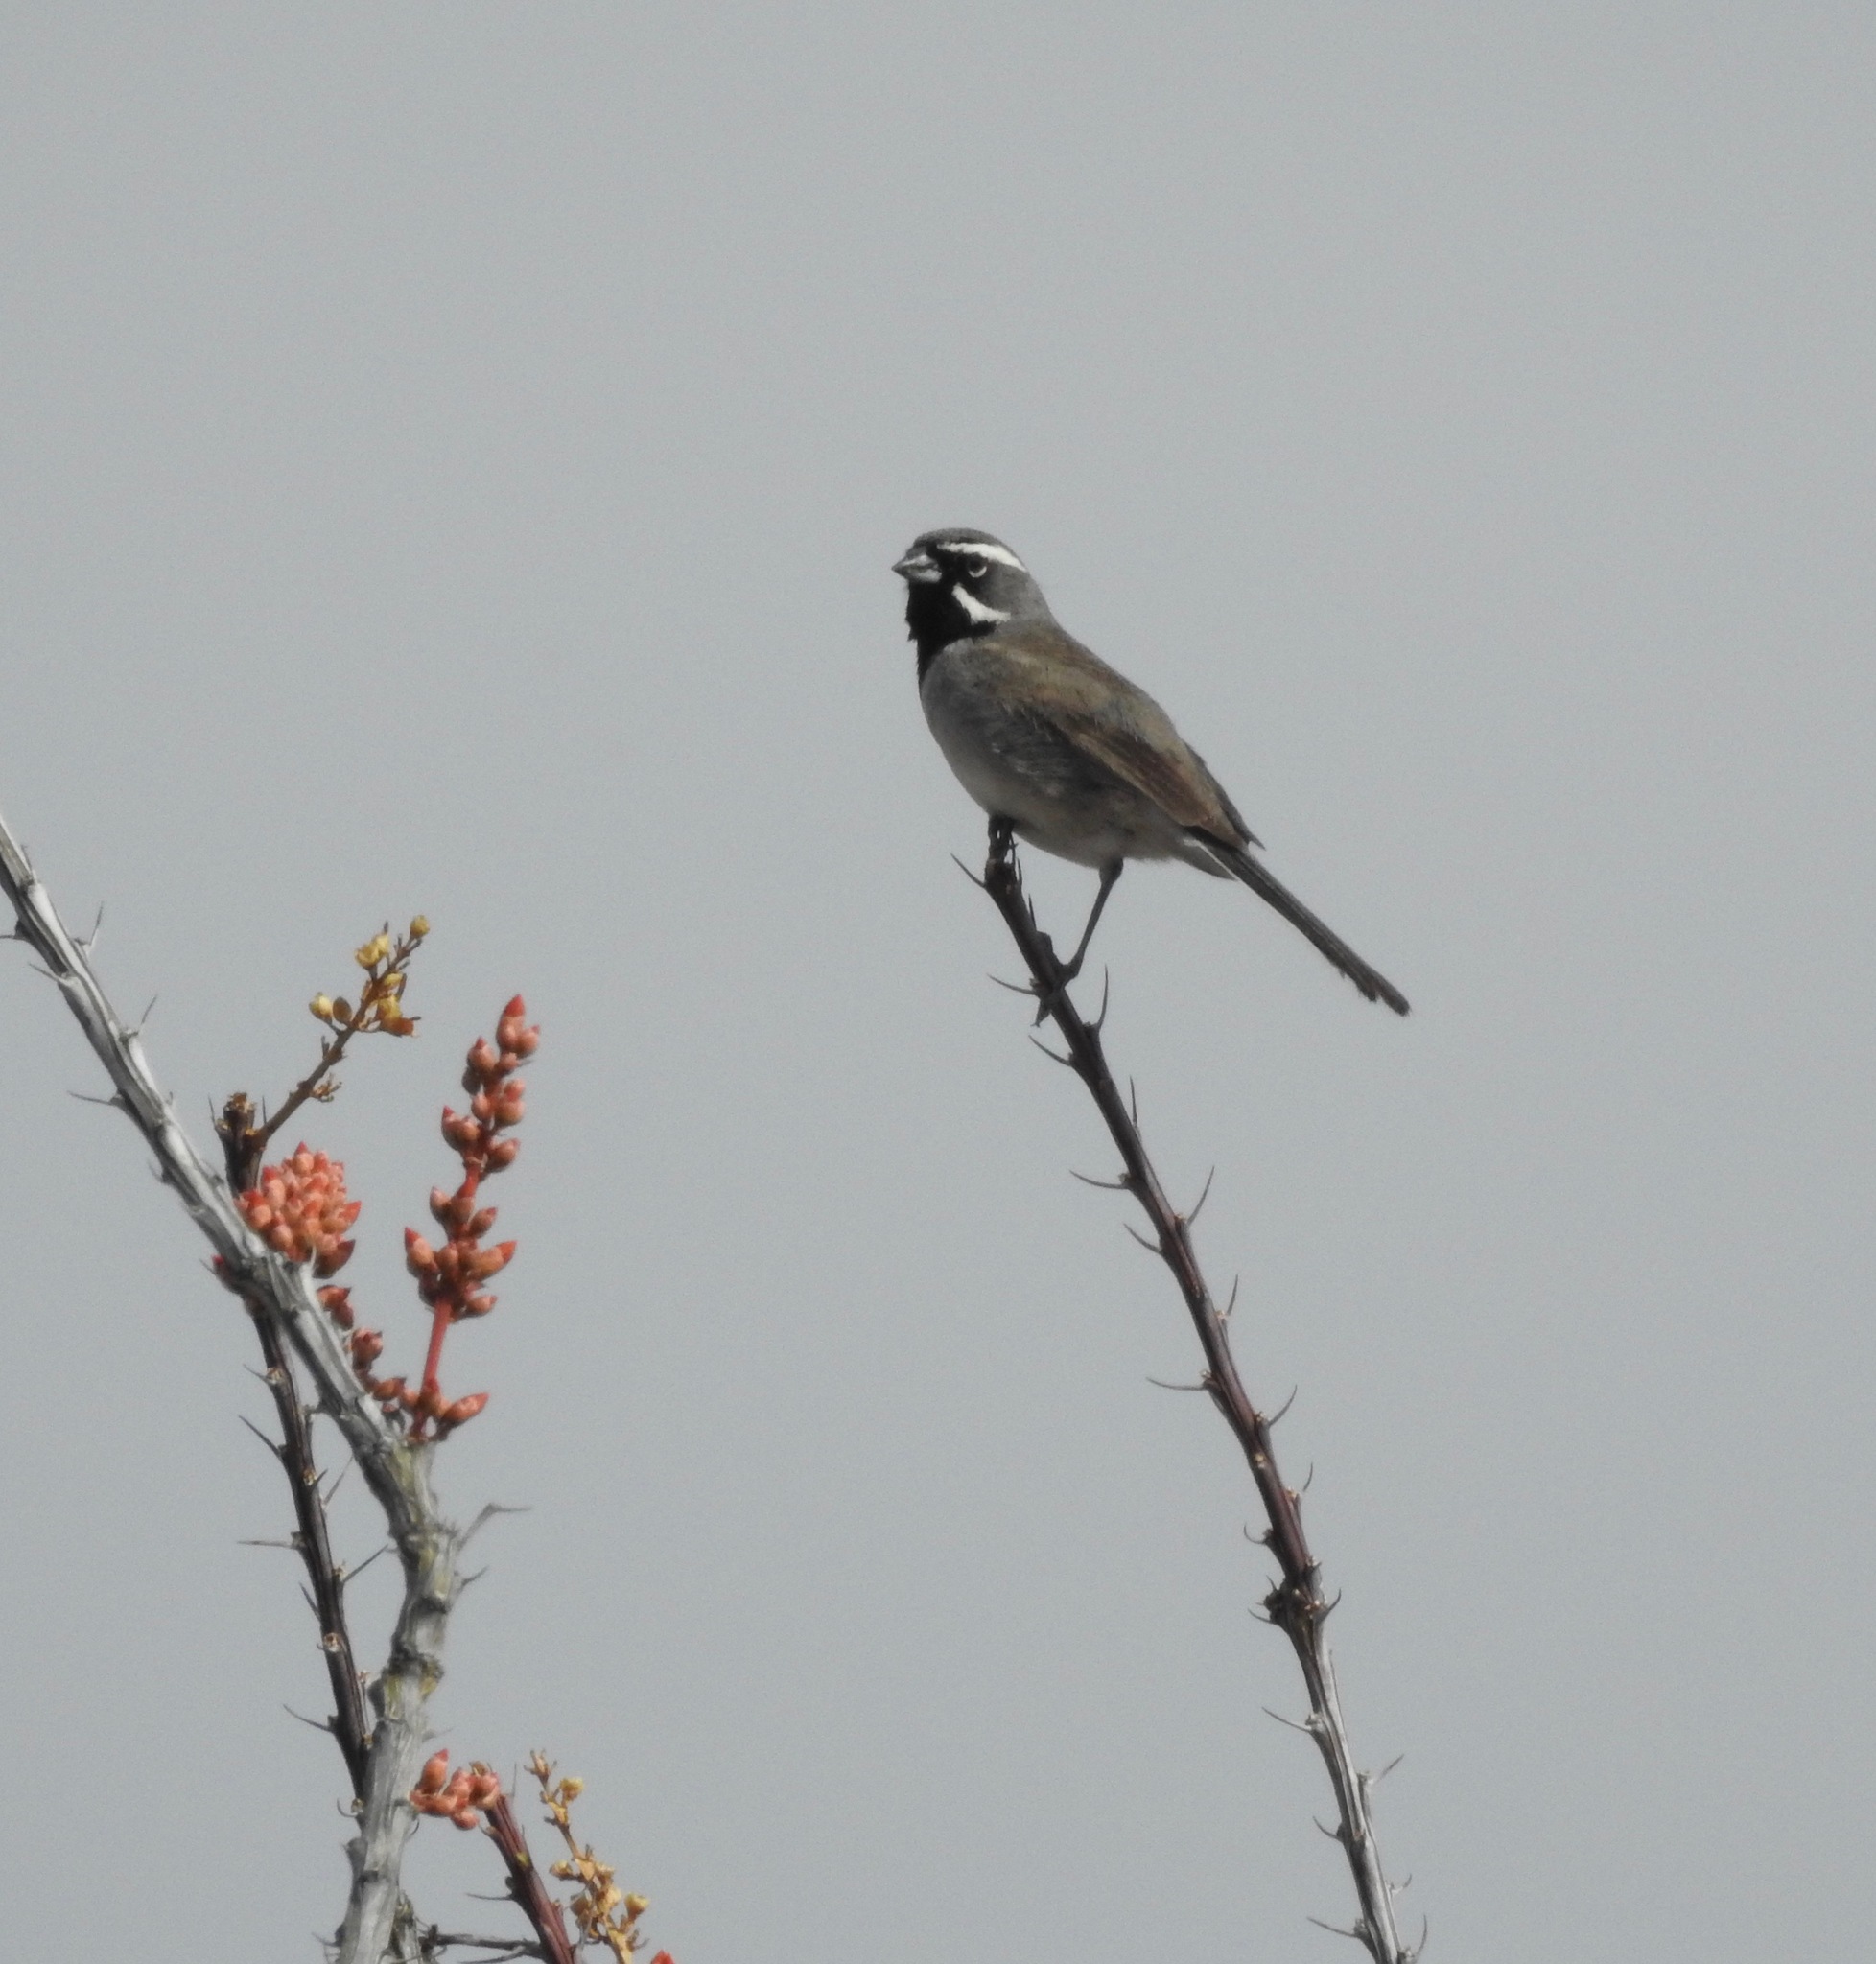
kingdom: Animalia
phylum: Chordata
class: Aves
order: Passeriformes
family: Passerellidae
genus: Amphispiza
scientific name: Amphispiza bilineata
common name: Black-throated sparrow
